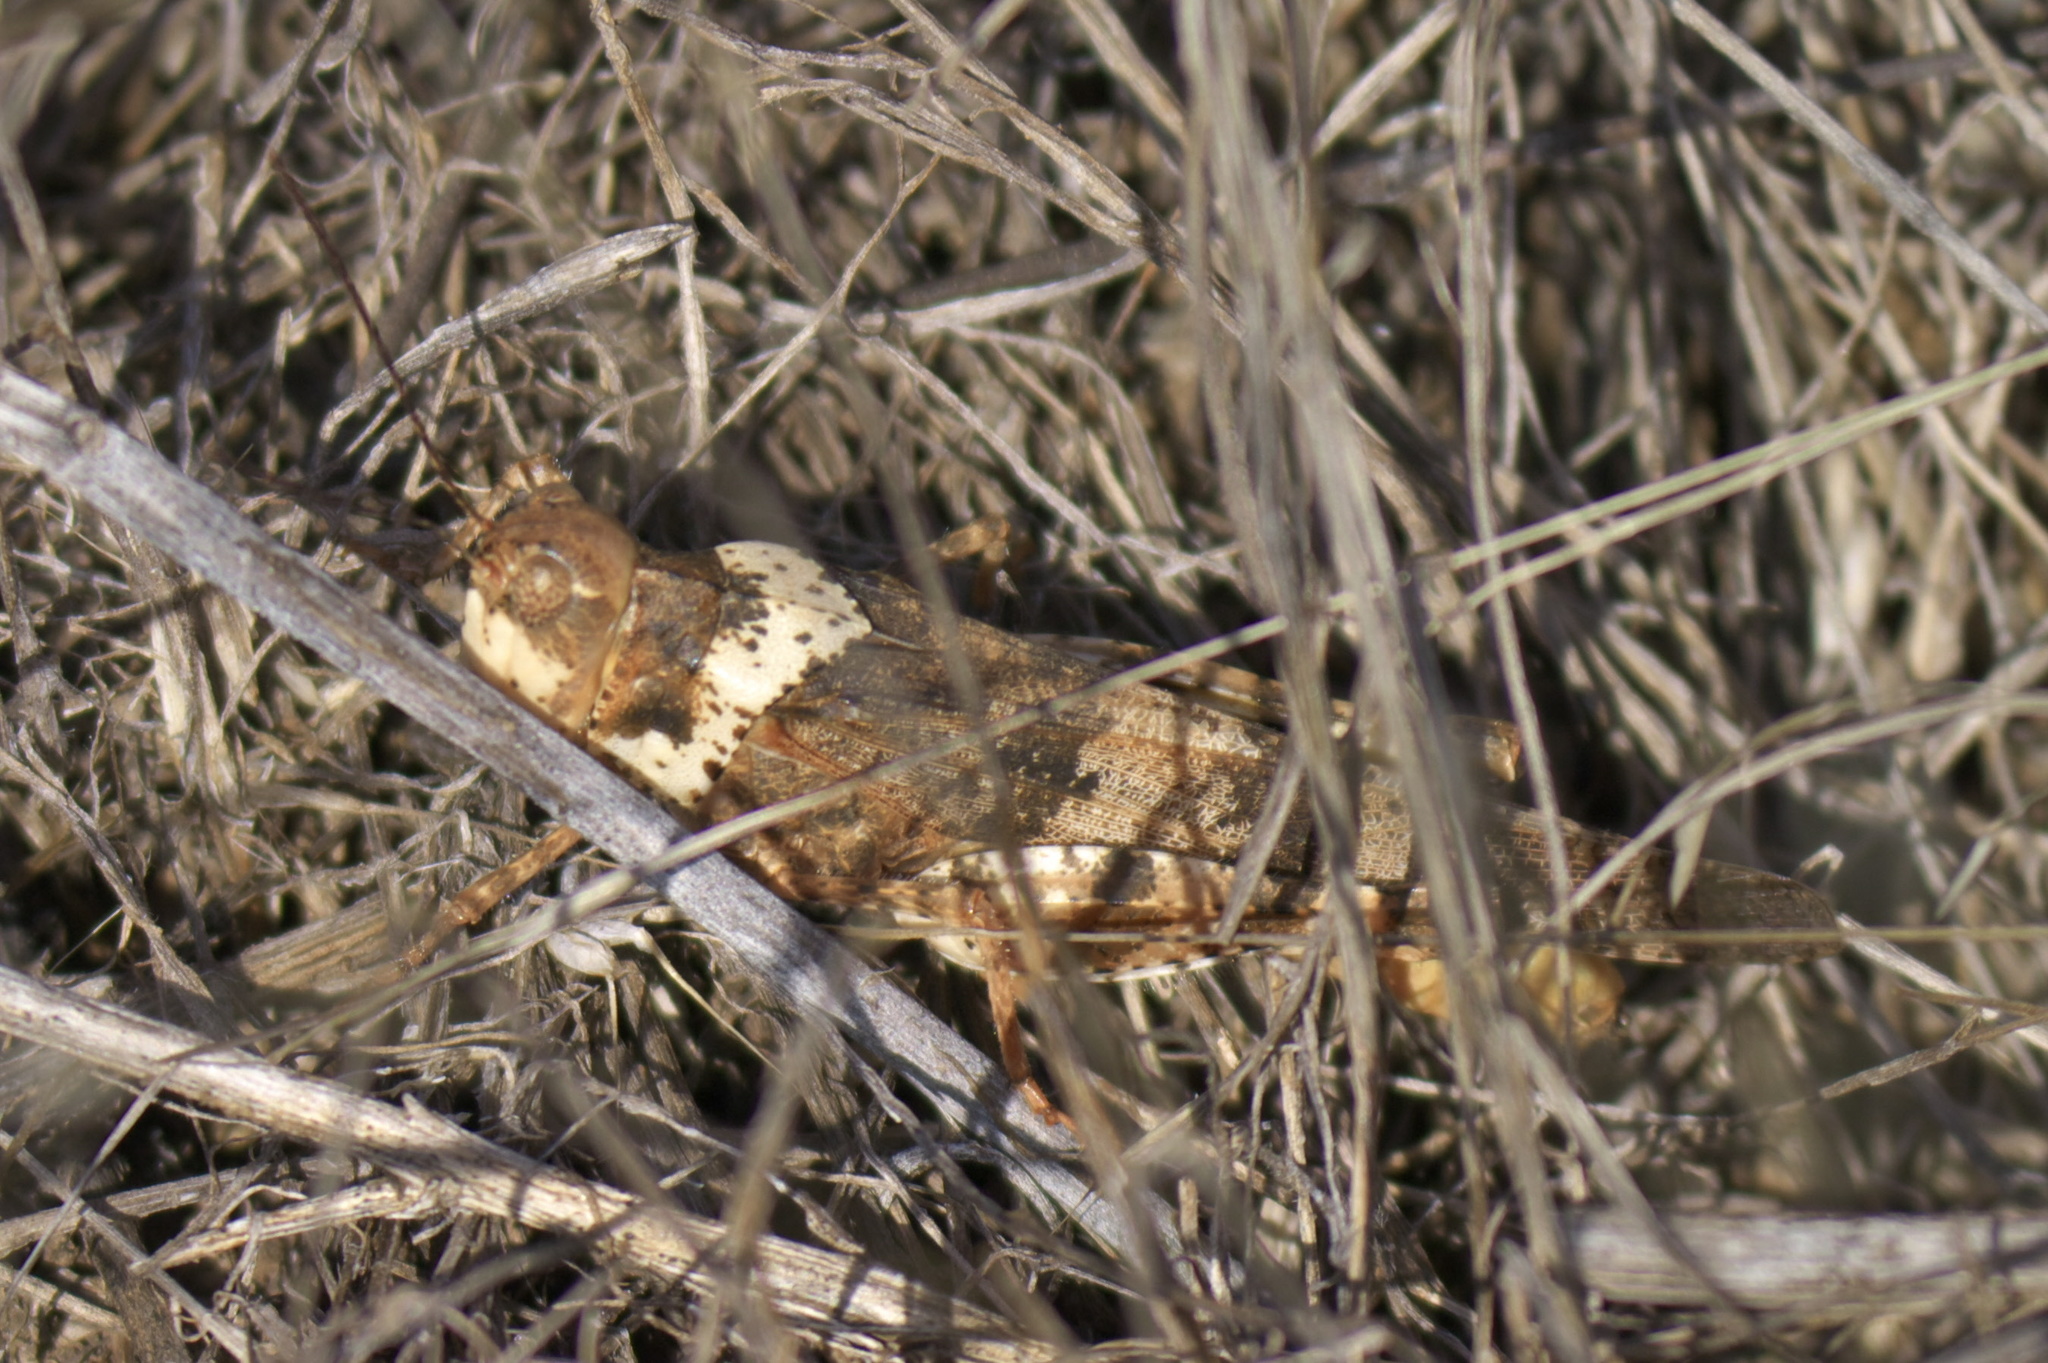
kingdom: Animalia
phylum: Arthropoda
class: Insecta
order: Orthoptera
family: Acrididae
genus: Spharagemon
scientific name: Spharagemon equale
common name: Orange-legged grasshopper
